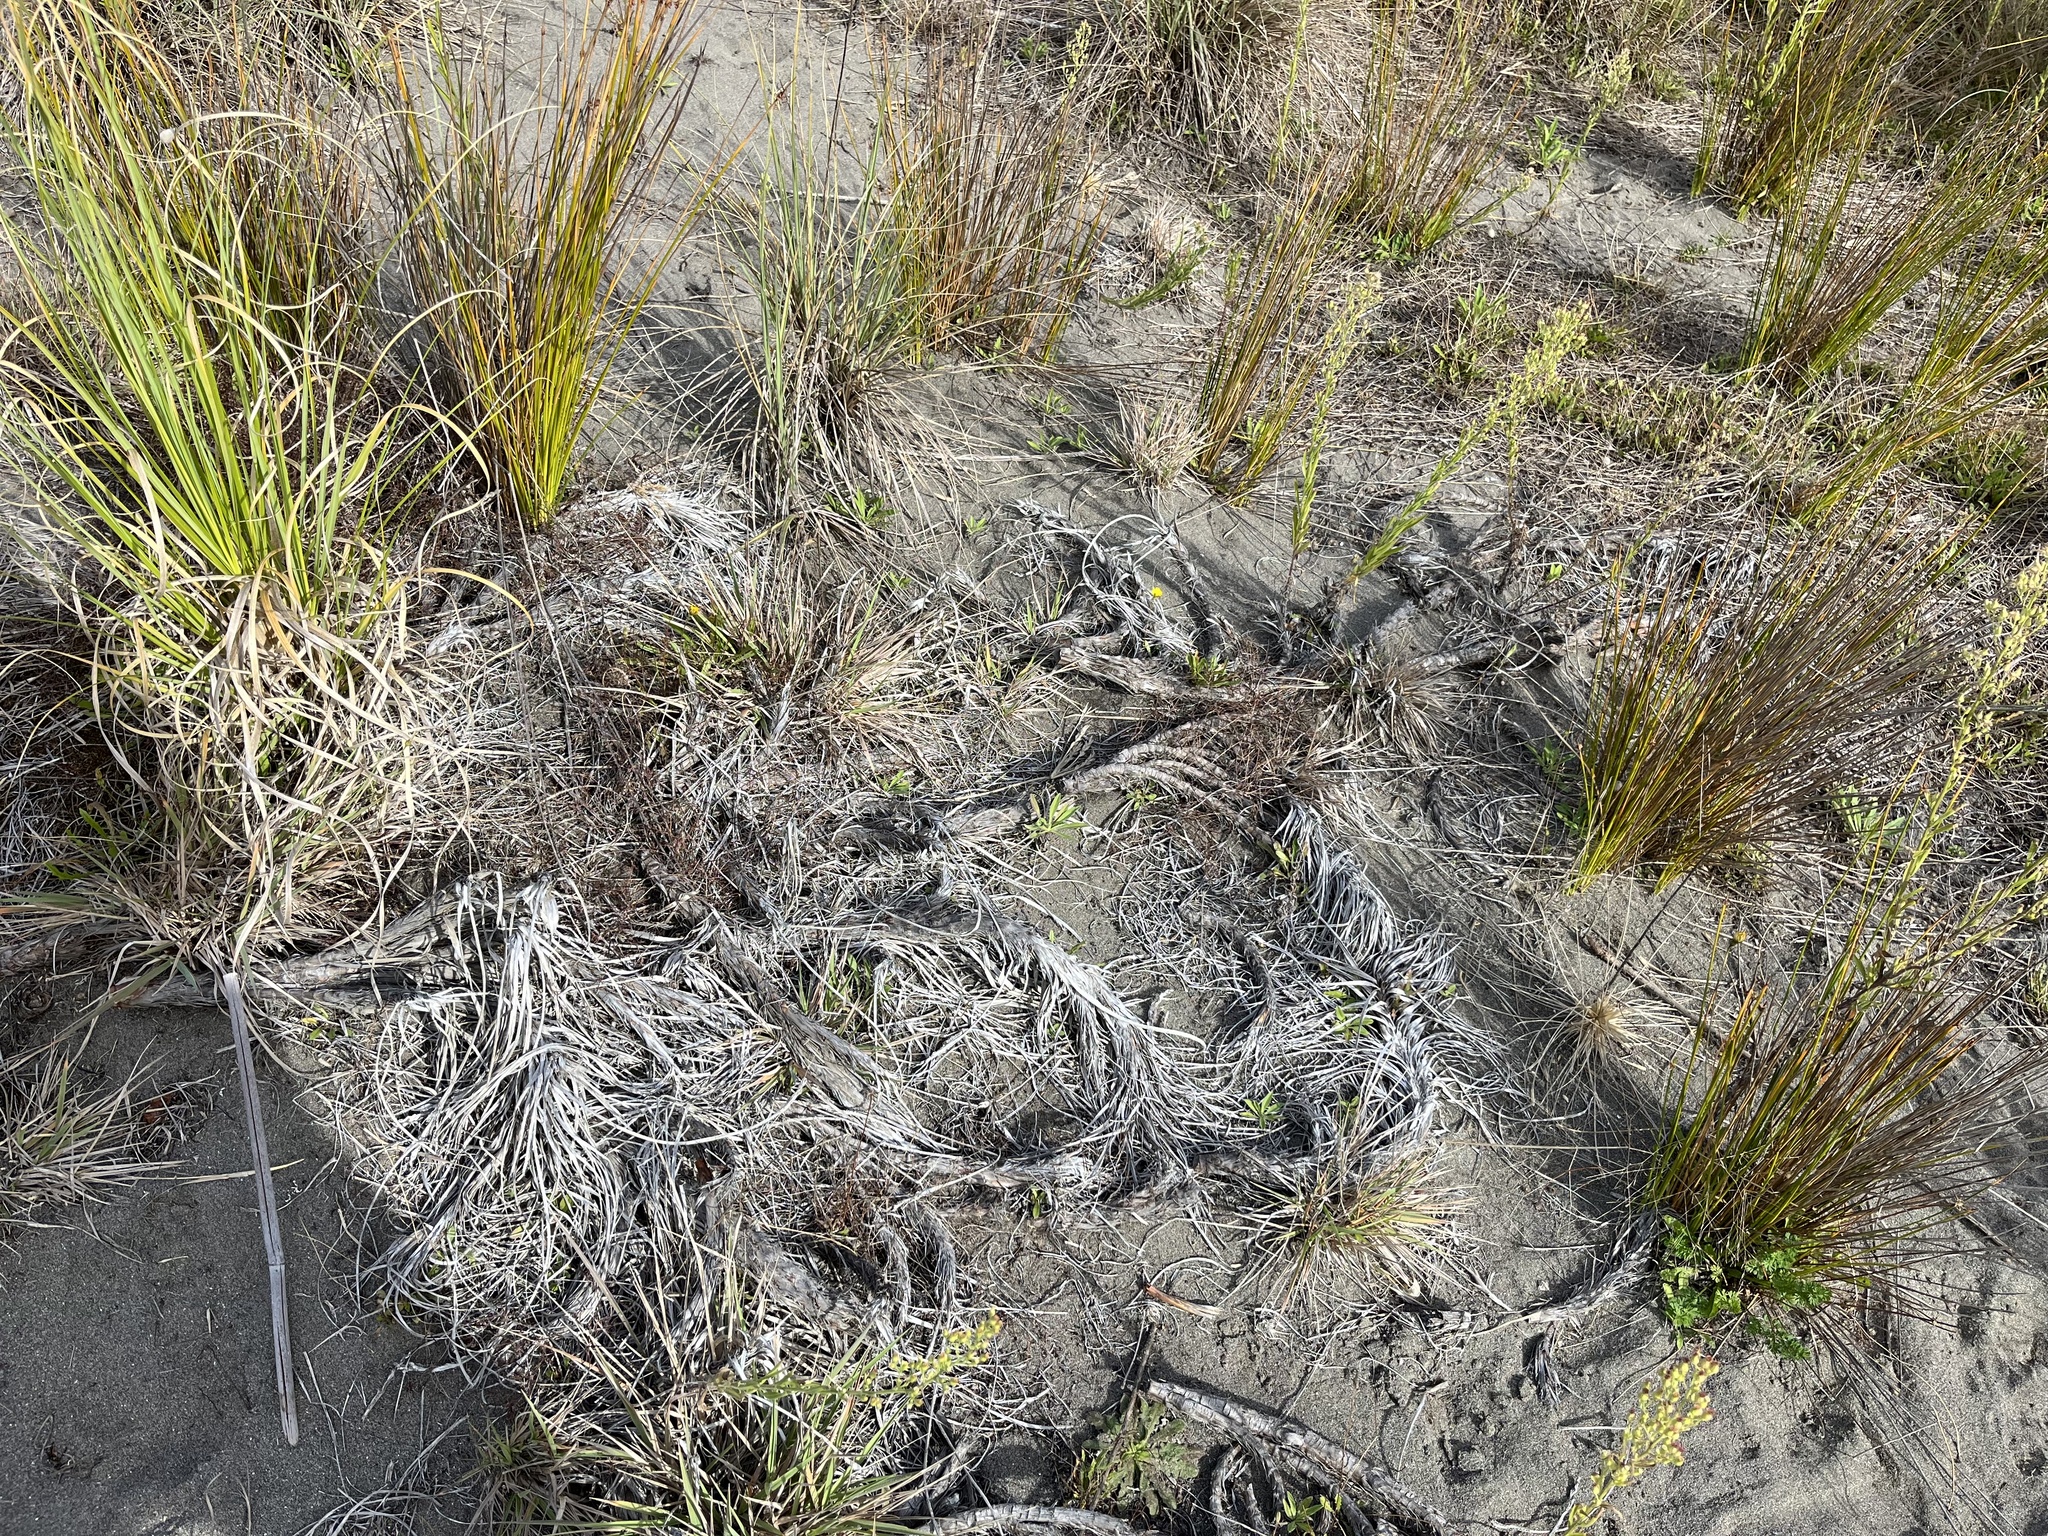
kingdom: Plantae
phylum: Tracheophyta
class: Liliopsida
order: Poales
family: Cyperaceae
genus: Ficinia
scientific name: Ficinia spiralis
